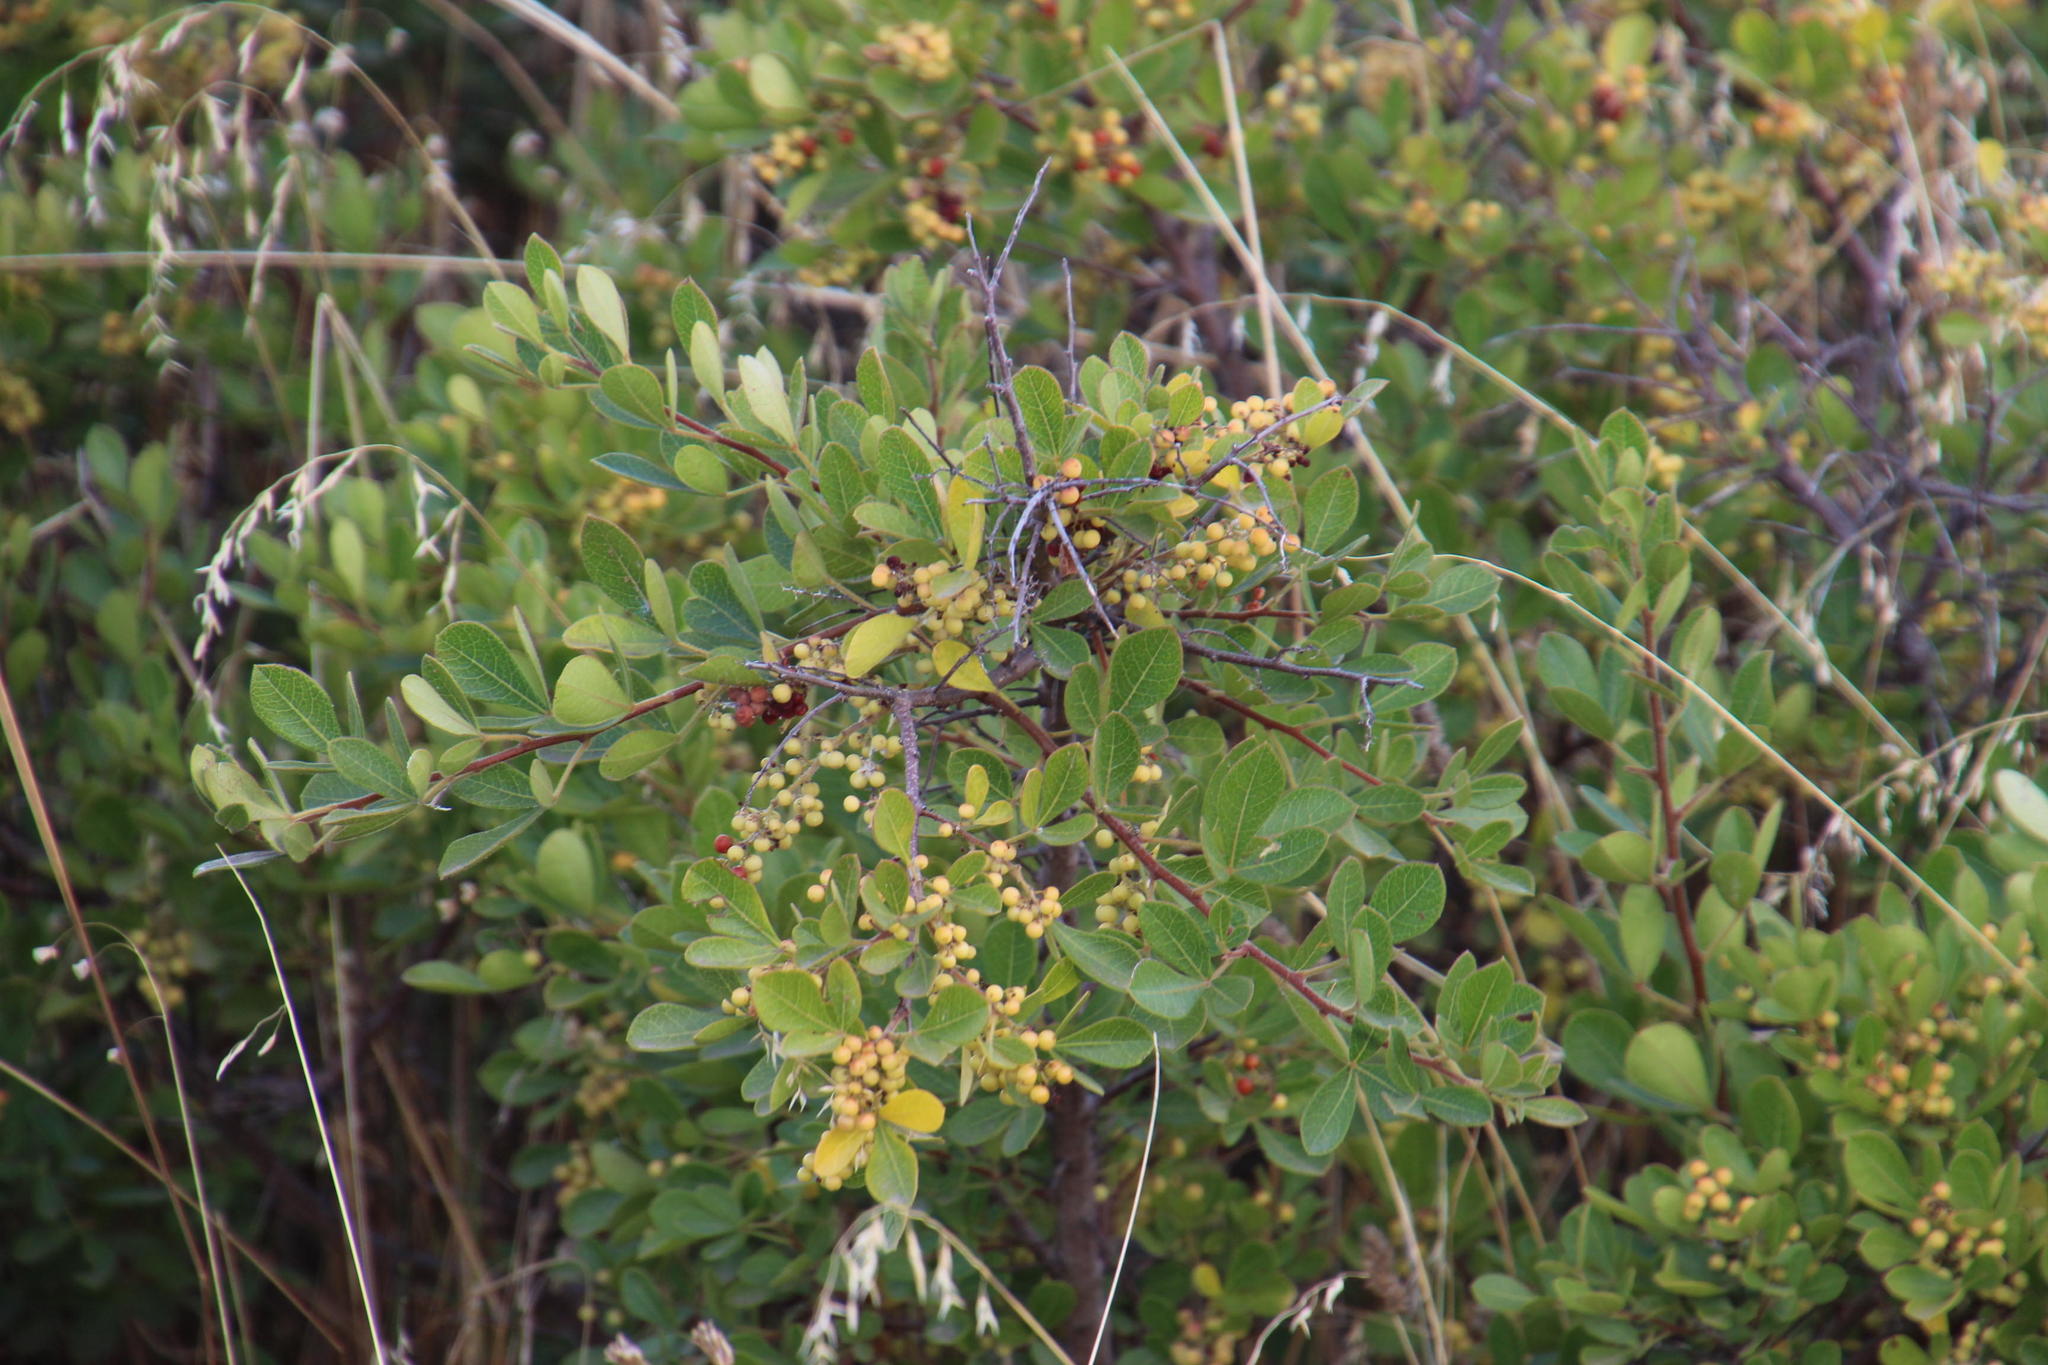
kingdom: Plantae
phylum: Tracheophyta
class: Magnoliopsida
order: Sapindales
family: Anacardiaceae
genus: Searsia
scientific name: Searsia laevigata
